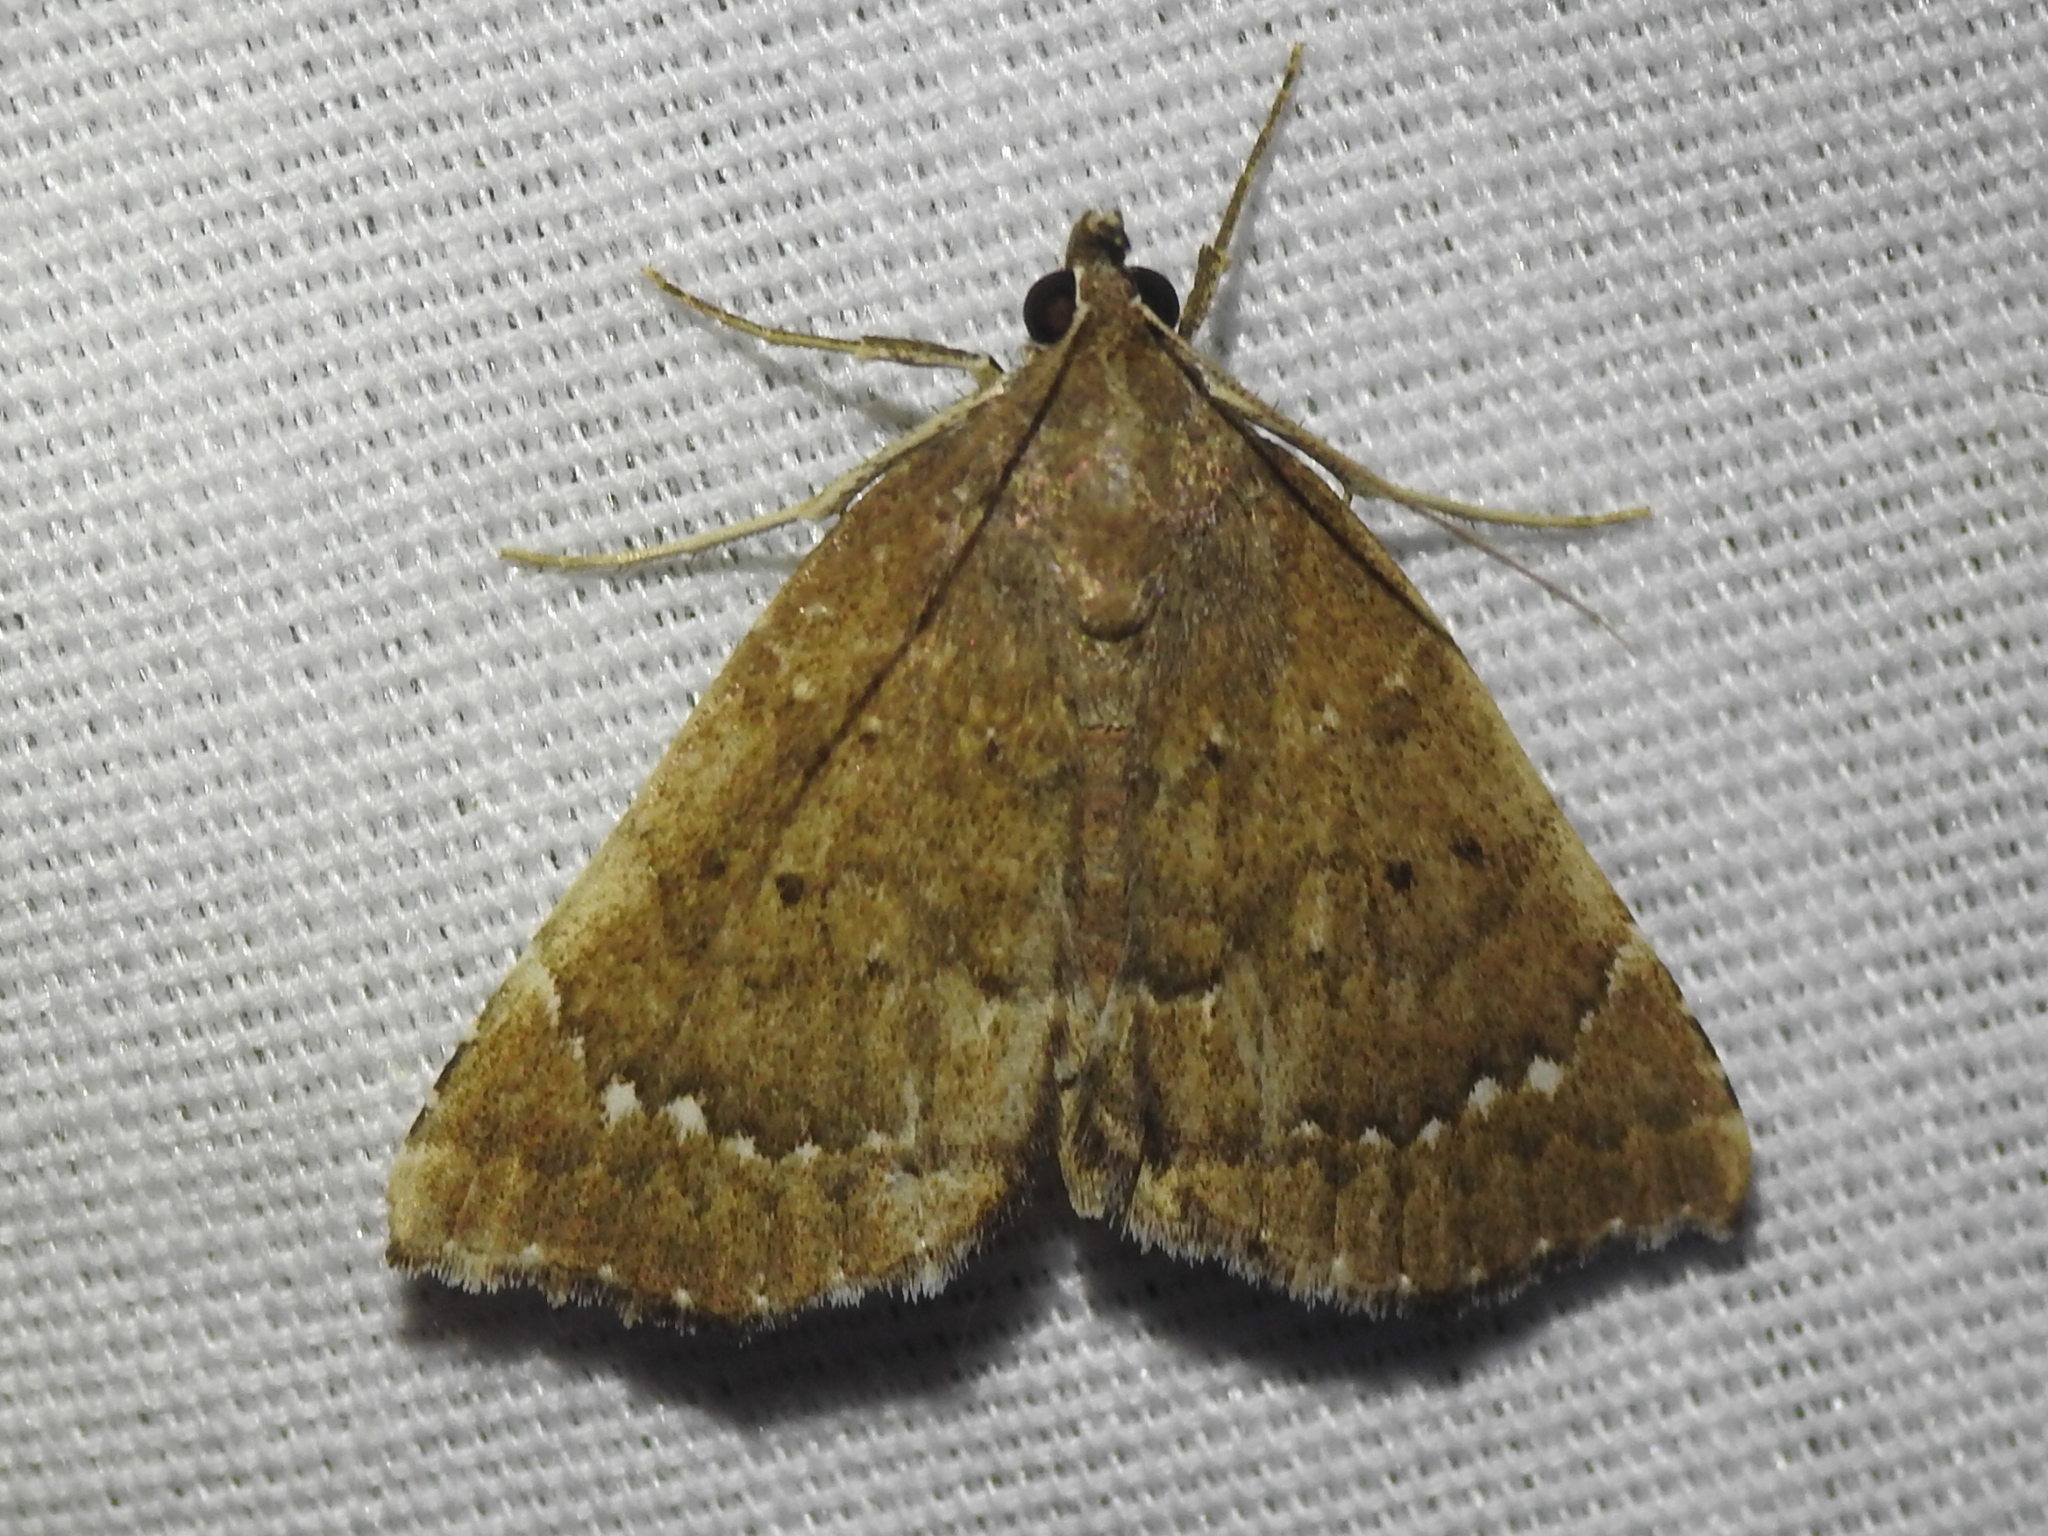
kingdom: Animalia
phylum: Arthropoda
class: Insecta
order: Lepidoptera
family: Erebidae
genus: Focillidia
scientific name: Focillidia texana
